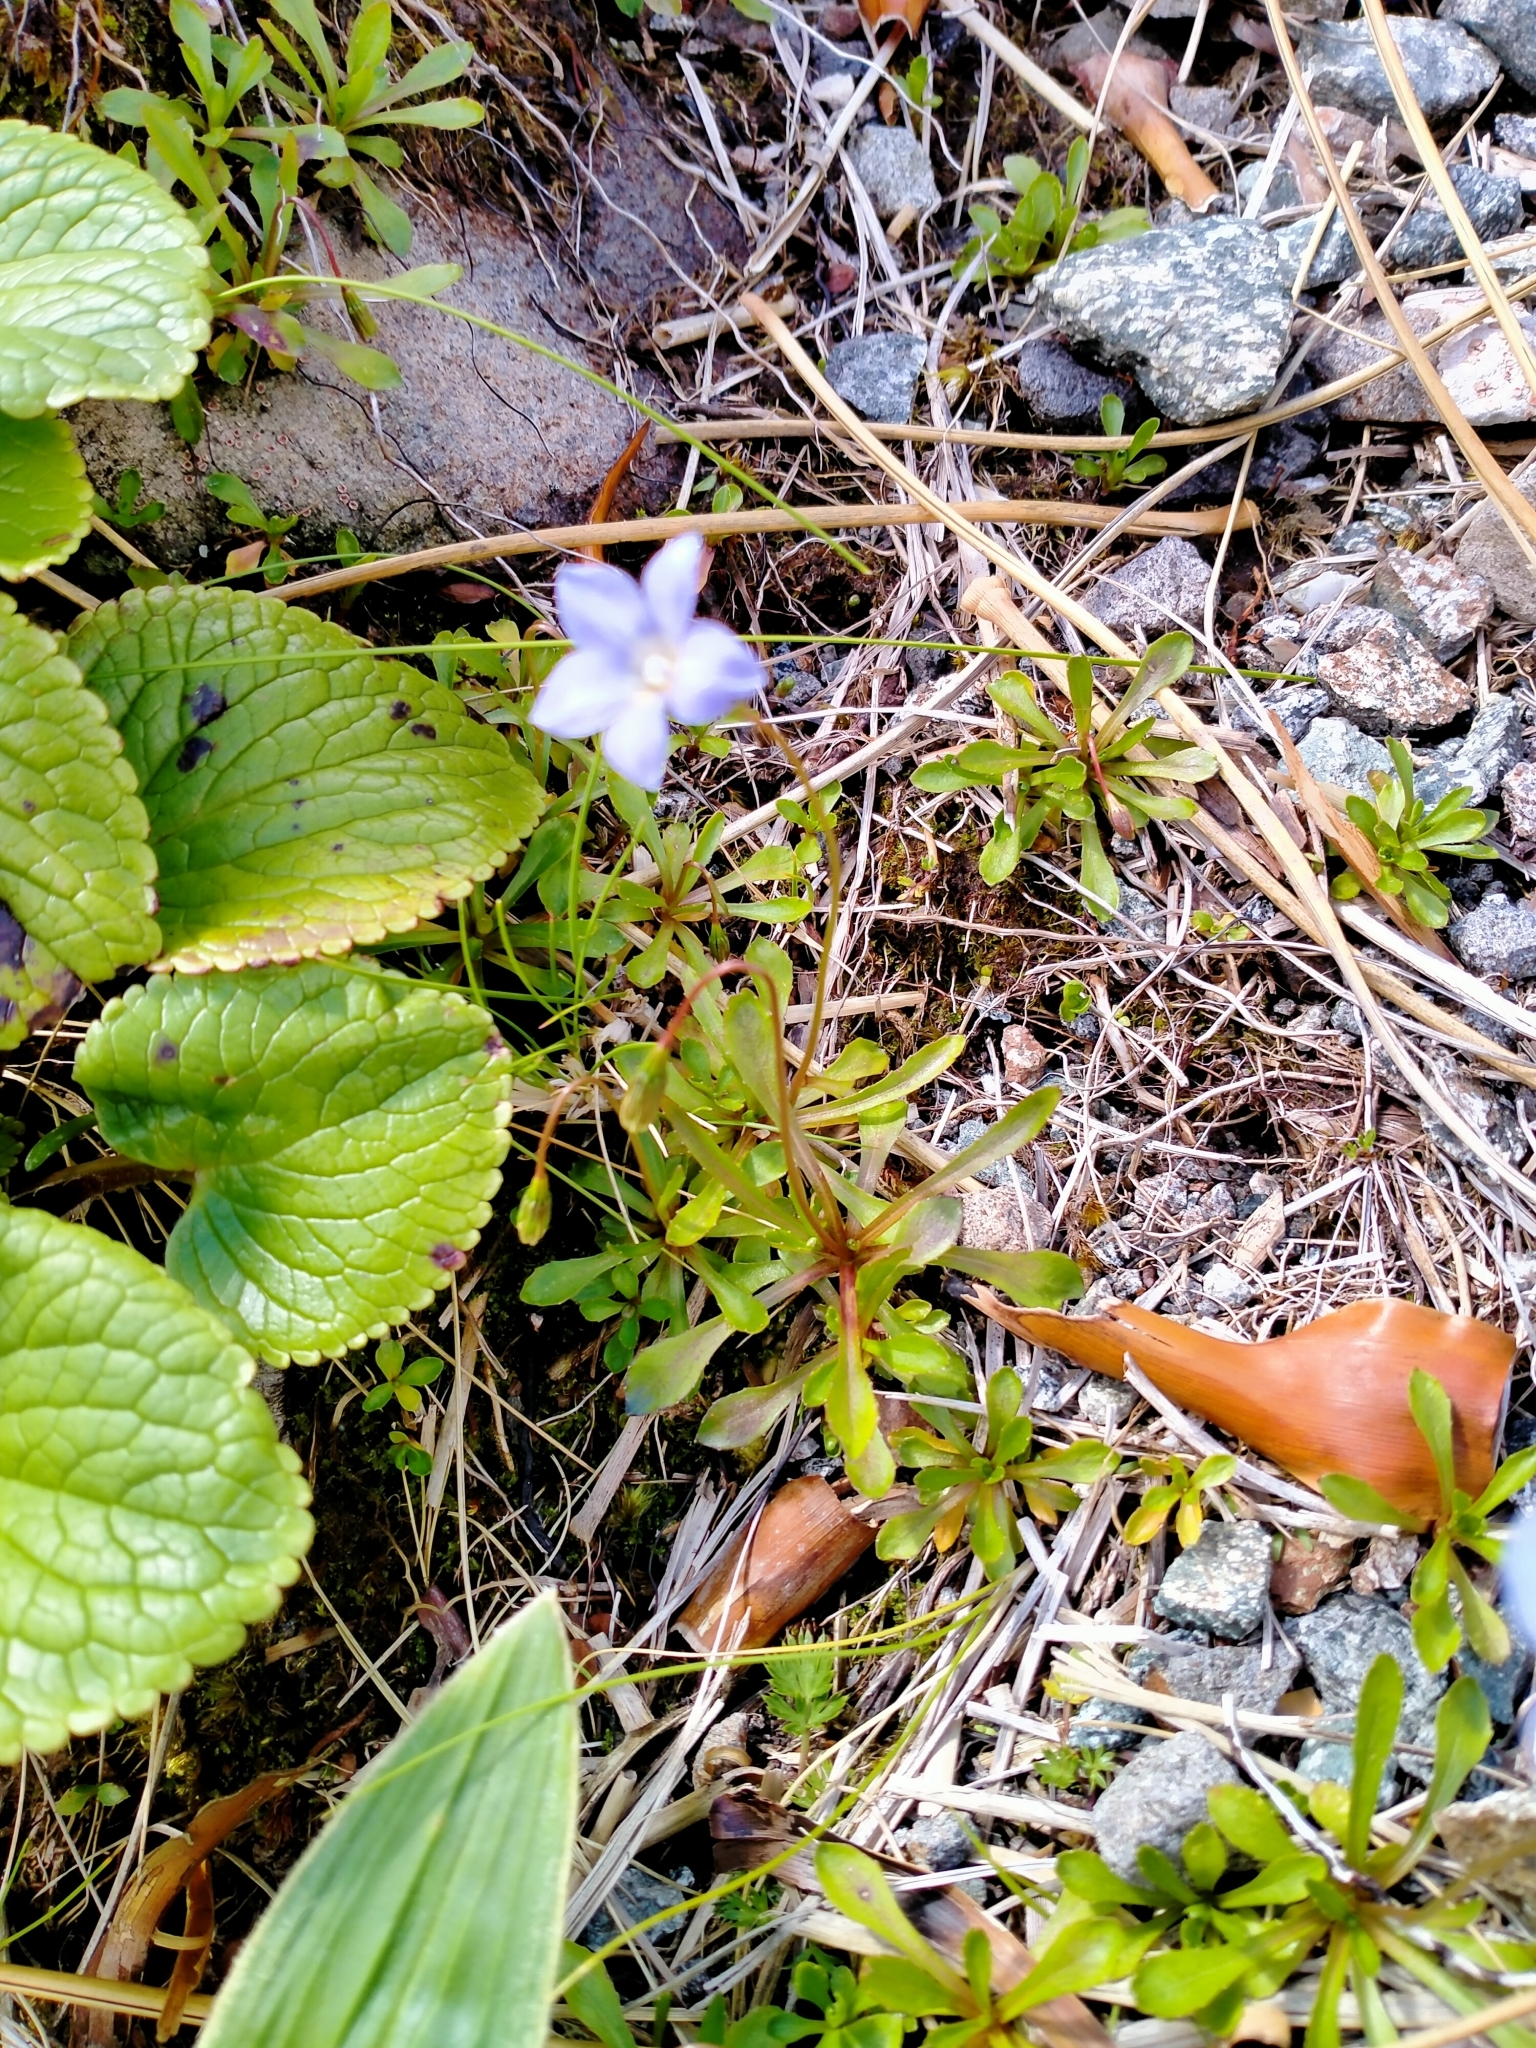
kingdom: Plantae
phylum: Tracheophyta
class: Magnoliopsida
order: Asterales
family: Campanulaceae
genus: Wahlenbergia
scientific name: Wahlenbergia albomarginata
